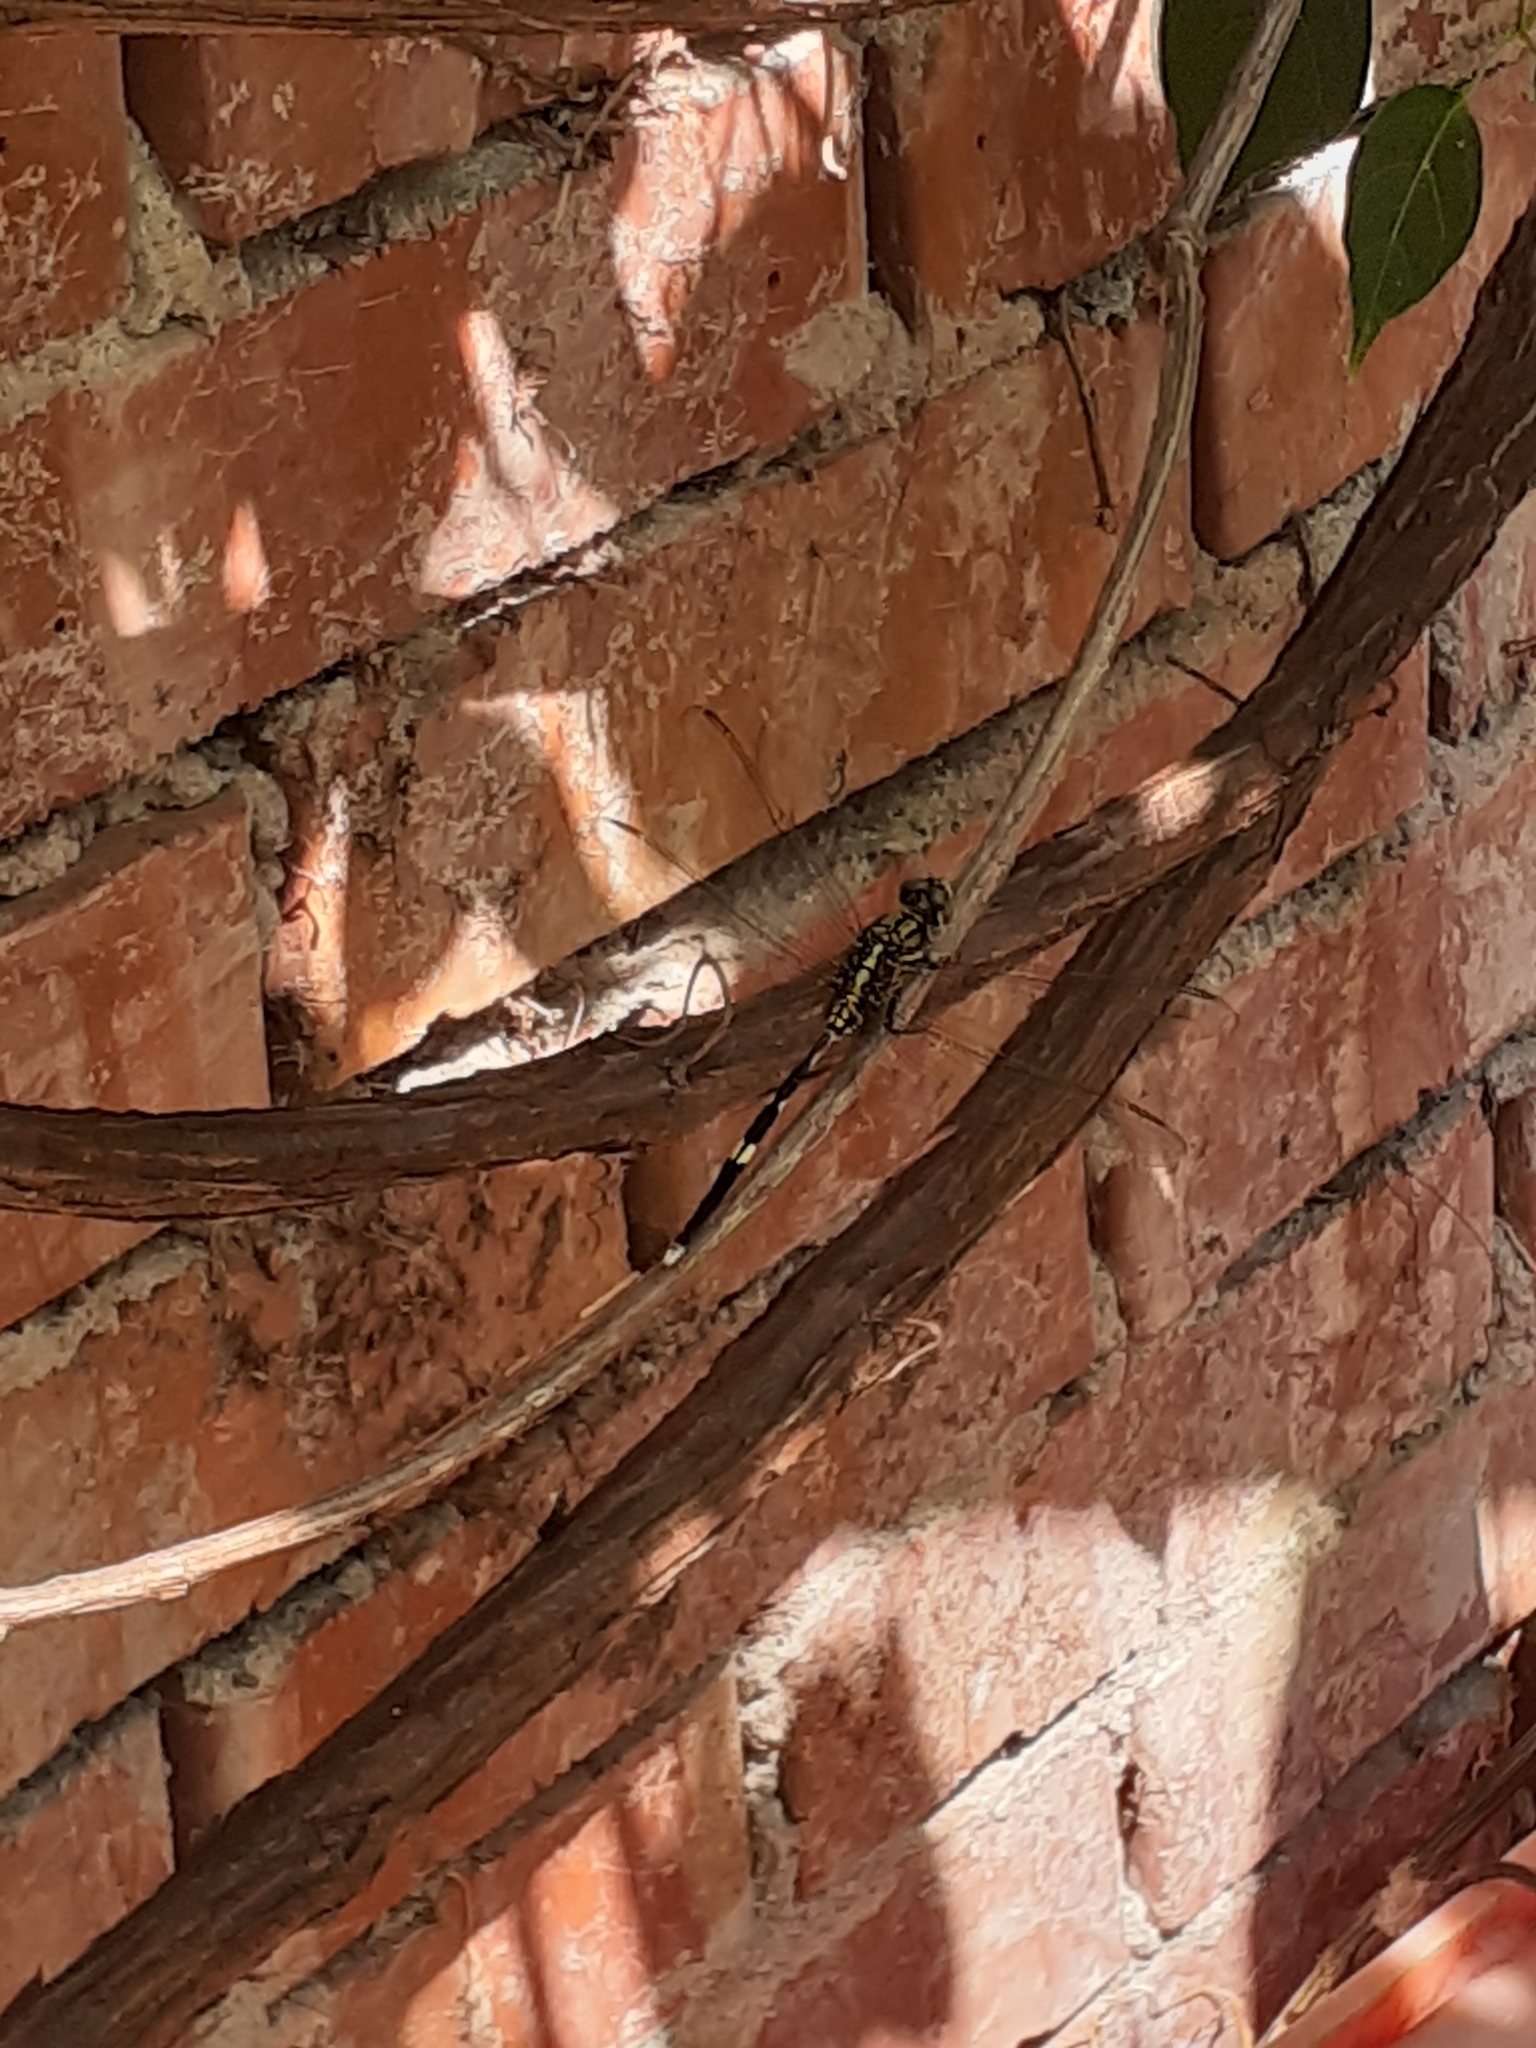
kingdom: Animalia
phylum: Arthropoda
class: Insecta
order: Odonata
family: Libellulidae
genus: Orthetrum
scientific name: Orthetrum sabina
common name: Slender skimmer
